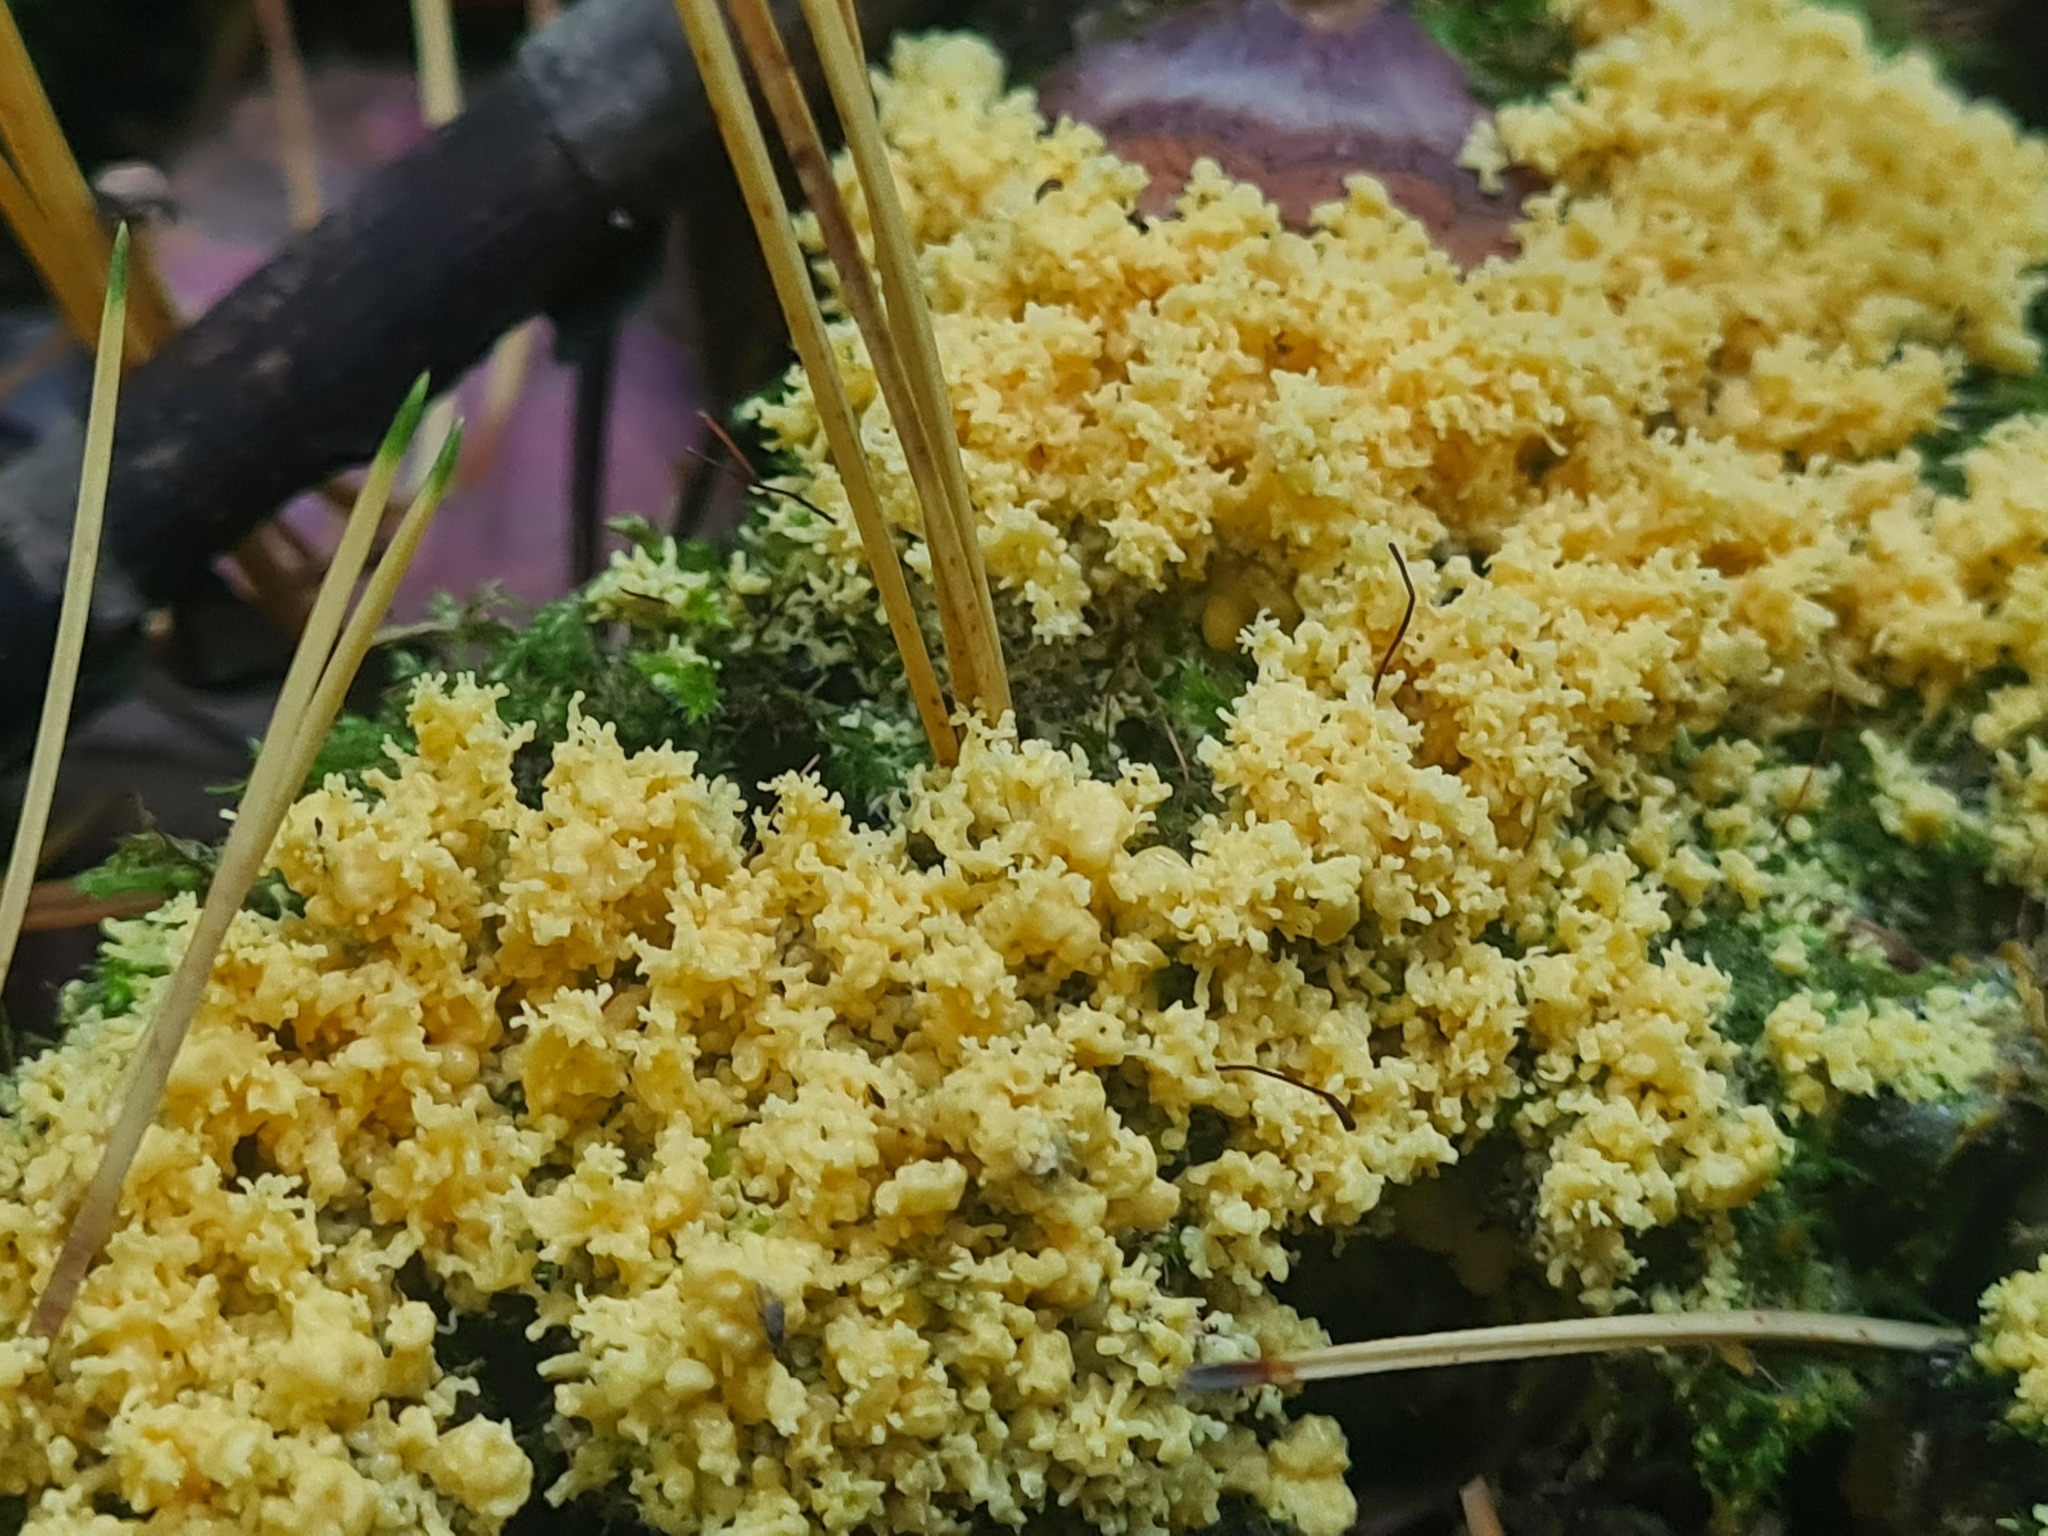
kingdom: Protozoa
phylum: Mycetozoa
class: Myxomycetes
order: Physarales
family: Physaraceae
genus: Fuligo
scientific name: Fuligo septica
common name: Dog vomit slime mold
